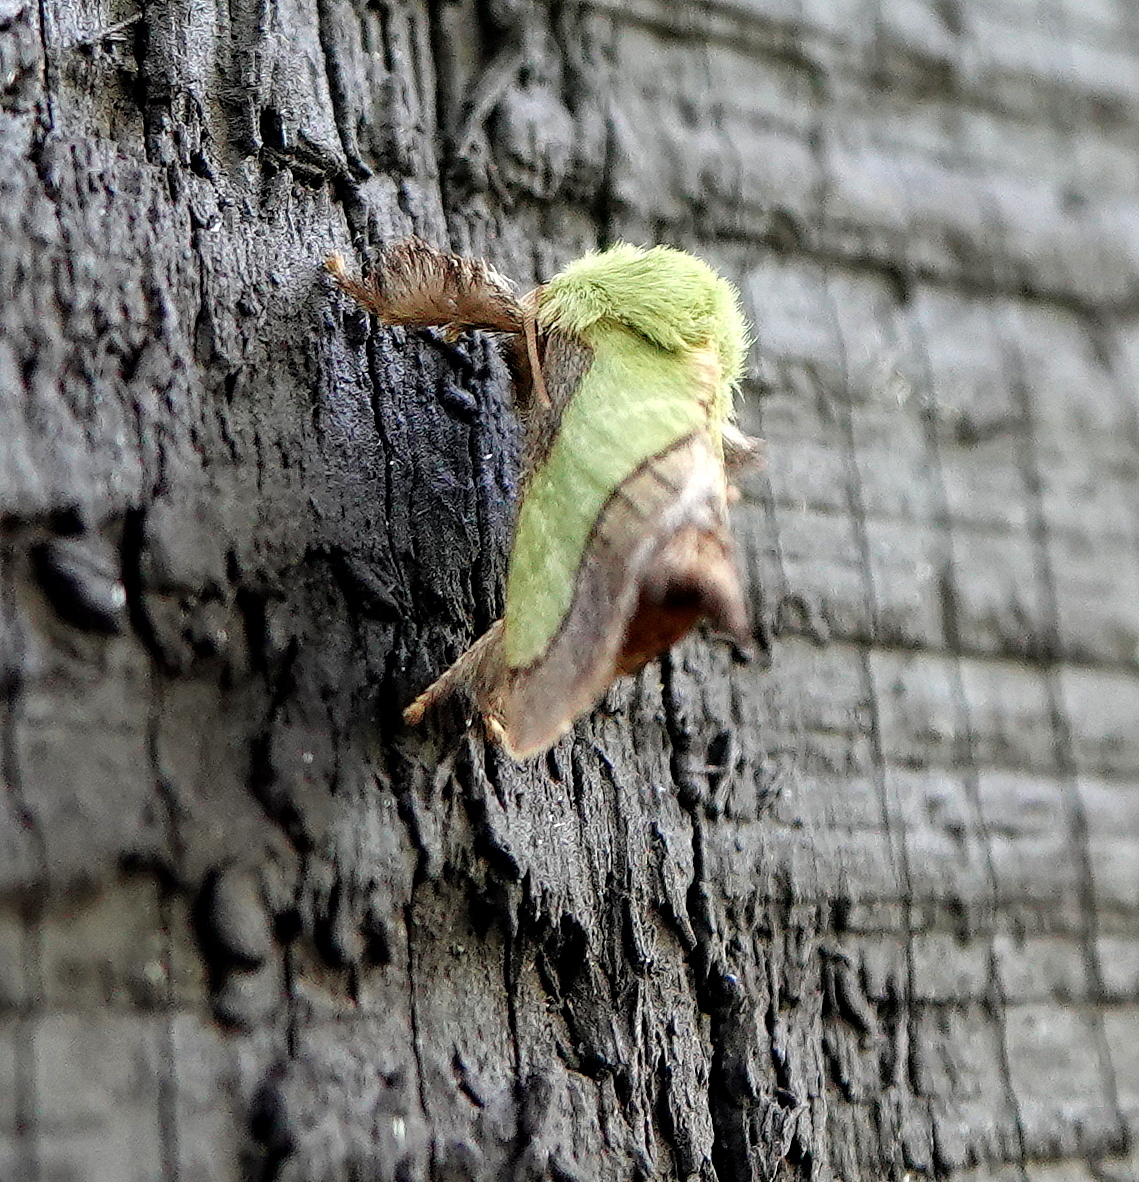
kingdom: Animalia
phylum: Arthropoda
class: Insecta
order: Lepidoptera
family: Limacodidae
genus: Parasa
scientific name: Parasa chloris
